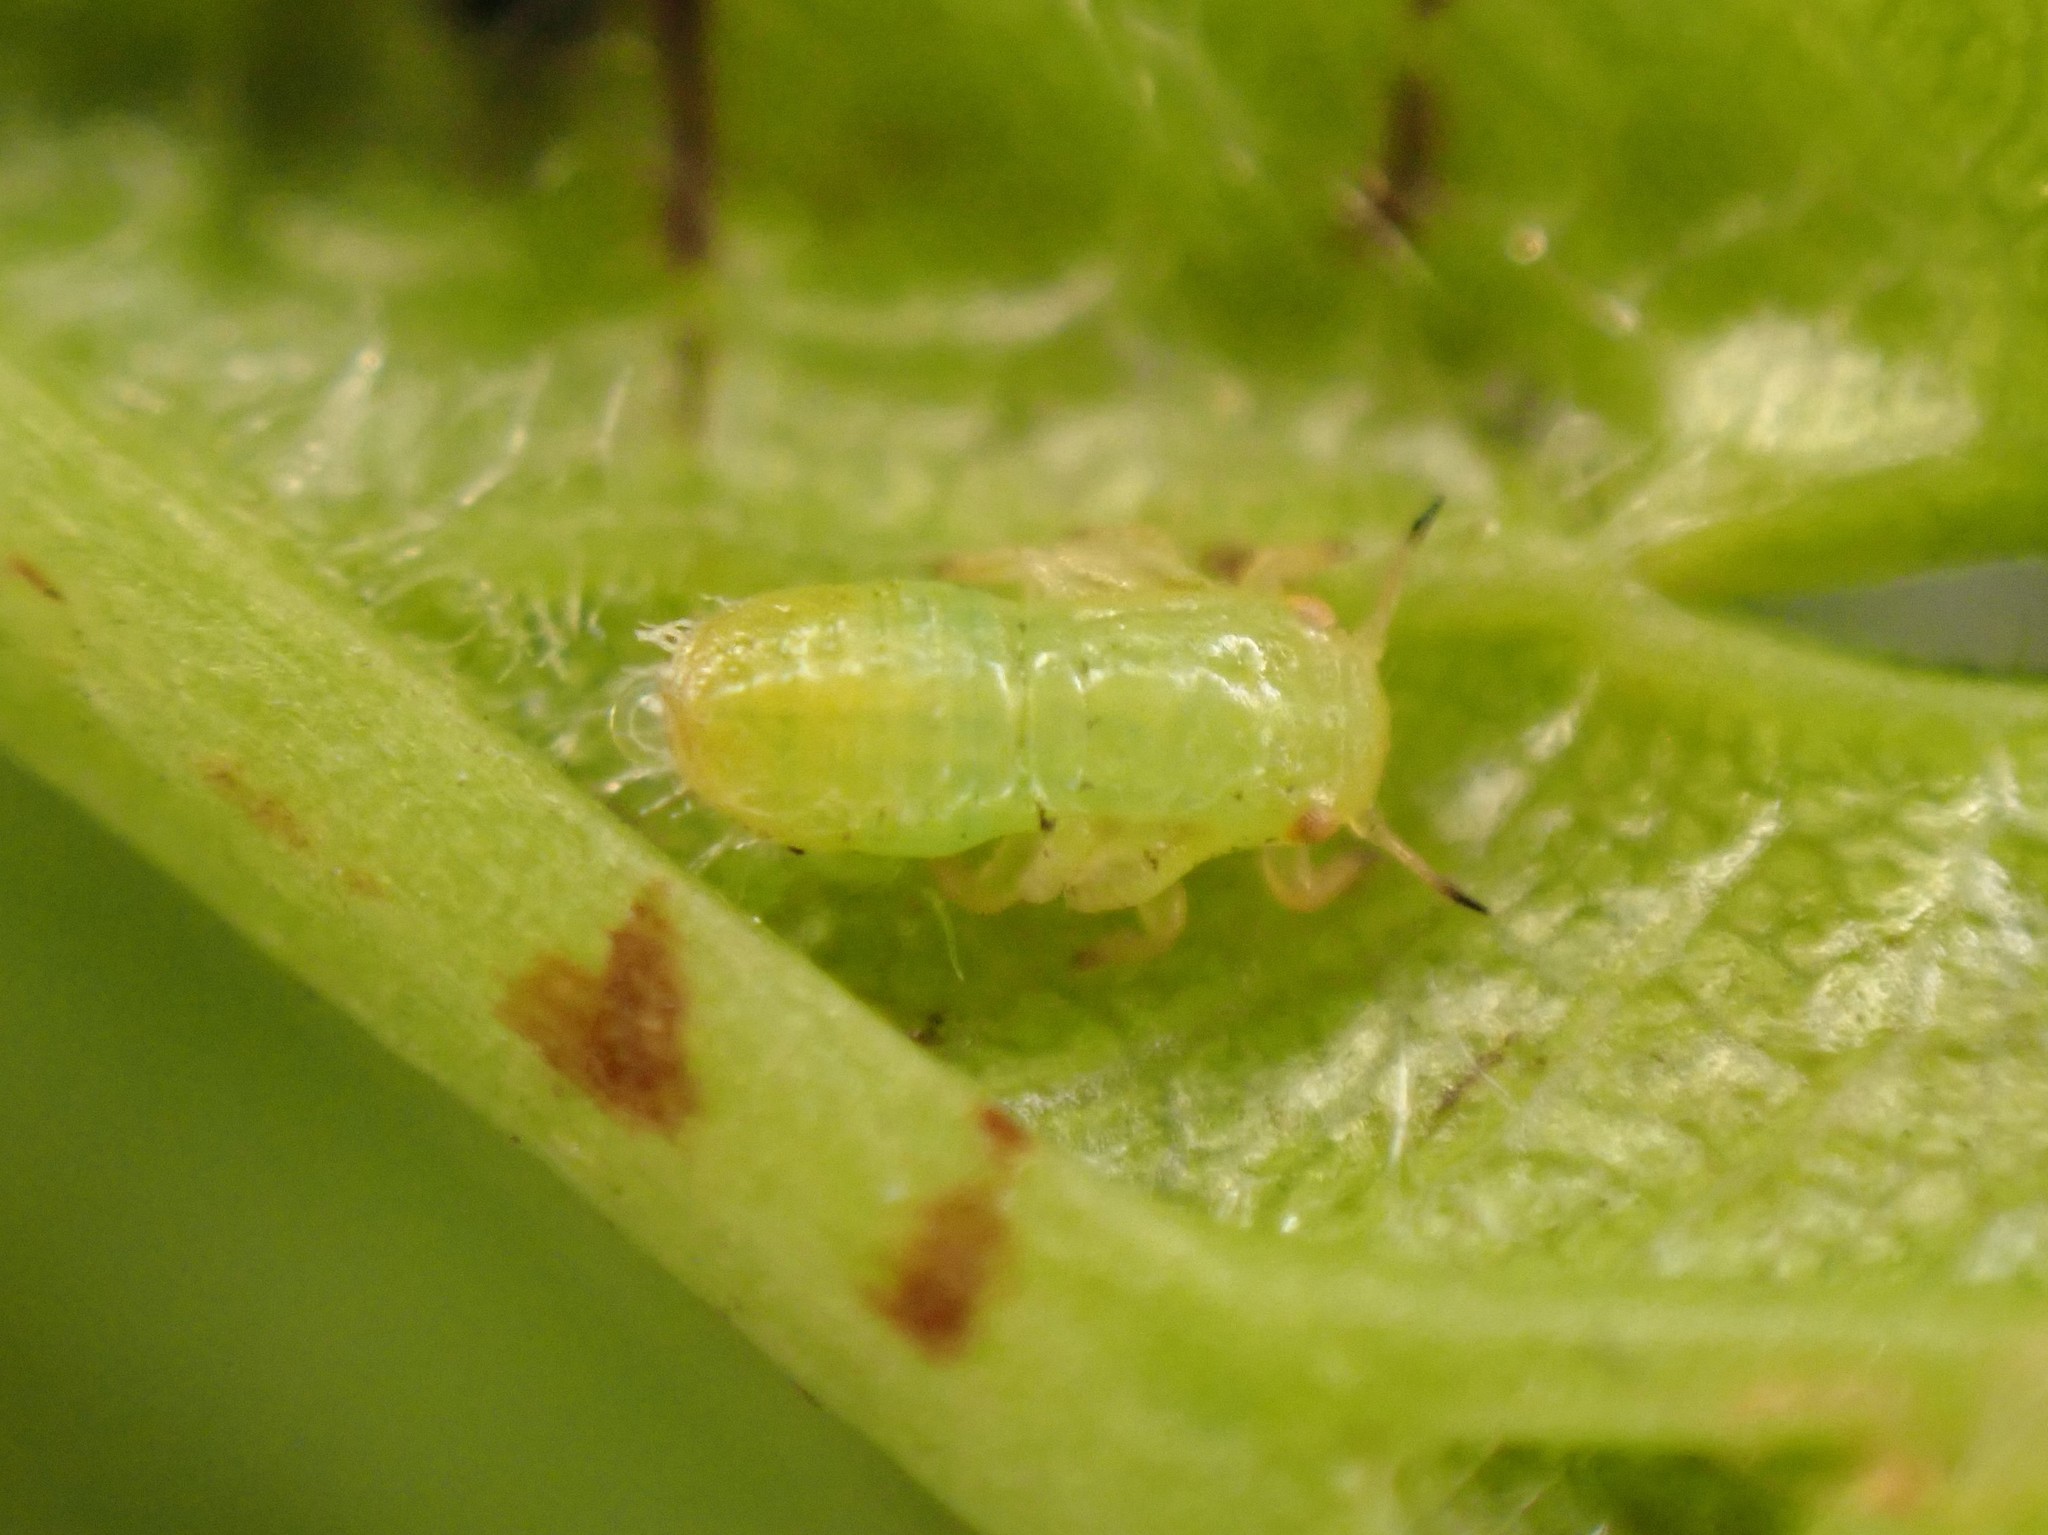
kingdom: Animalia
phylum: Arthropoda
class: Insecta
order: Hemiptera
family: Psyllidae
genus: Cacopsylla
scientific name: Cacopsylla peregrina
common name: Psyllid
